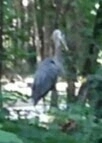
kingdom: Animalia
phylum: Chordata
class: Aves
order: Pelecaniformes
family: Ardeidae
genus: Ardea
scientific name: Ardea herodias
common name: Great blue heron
